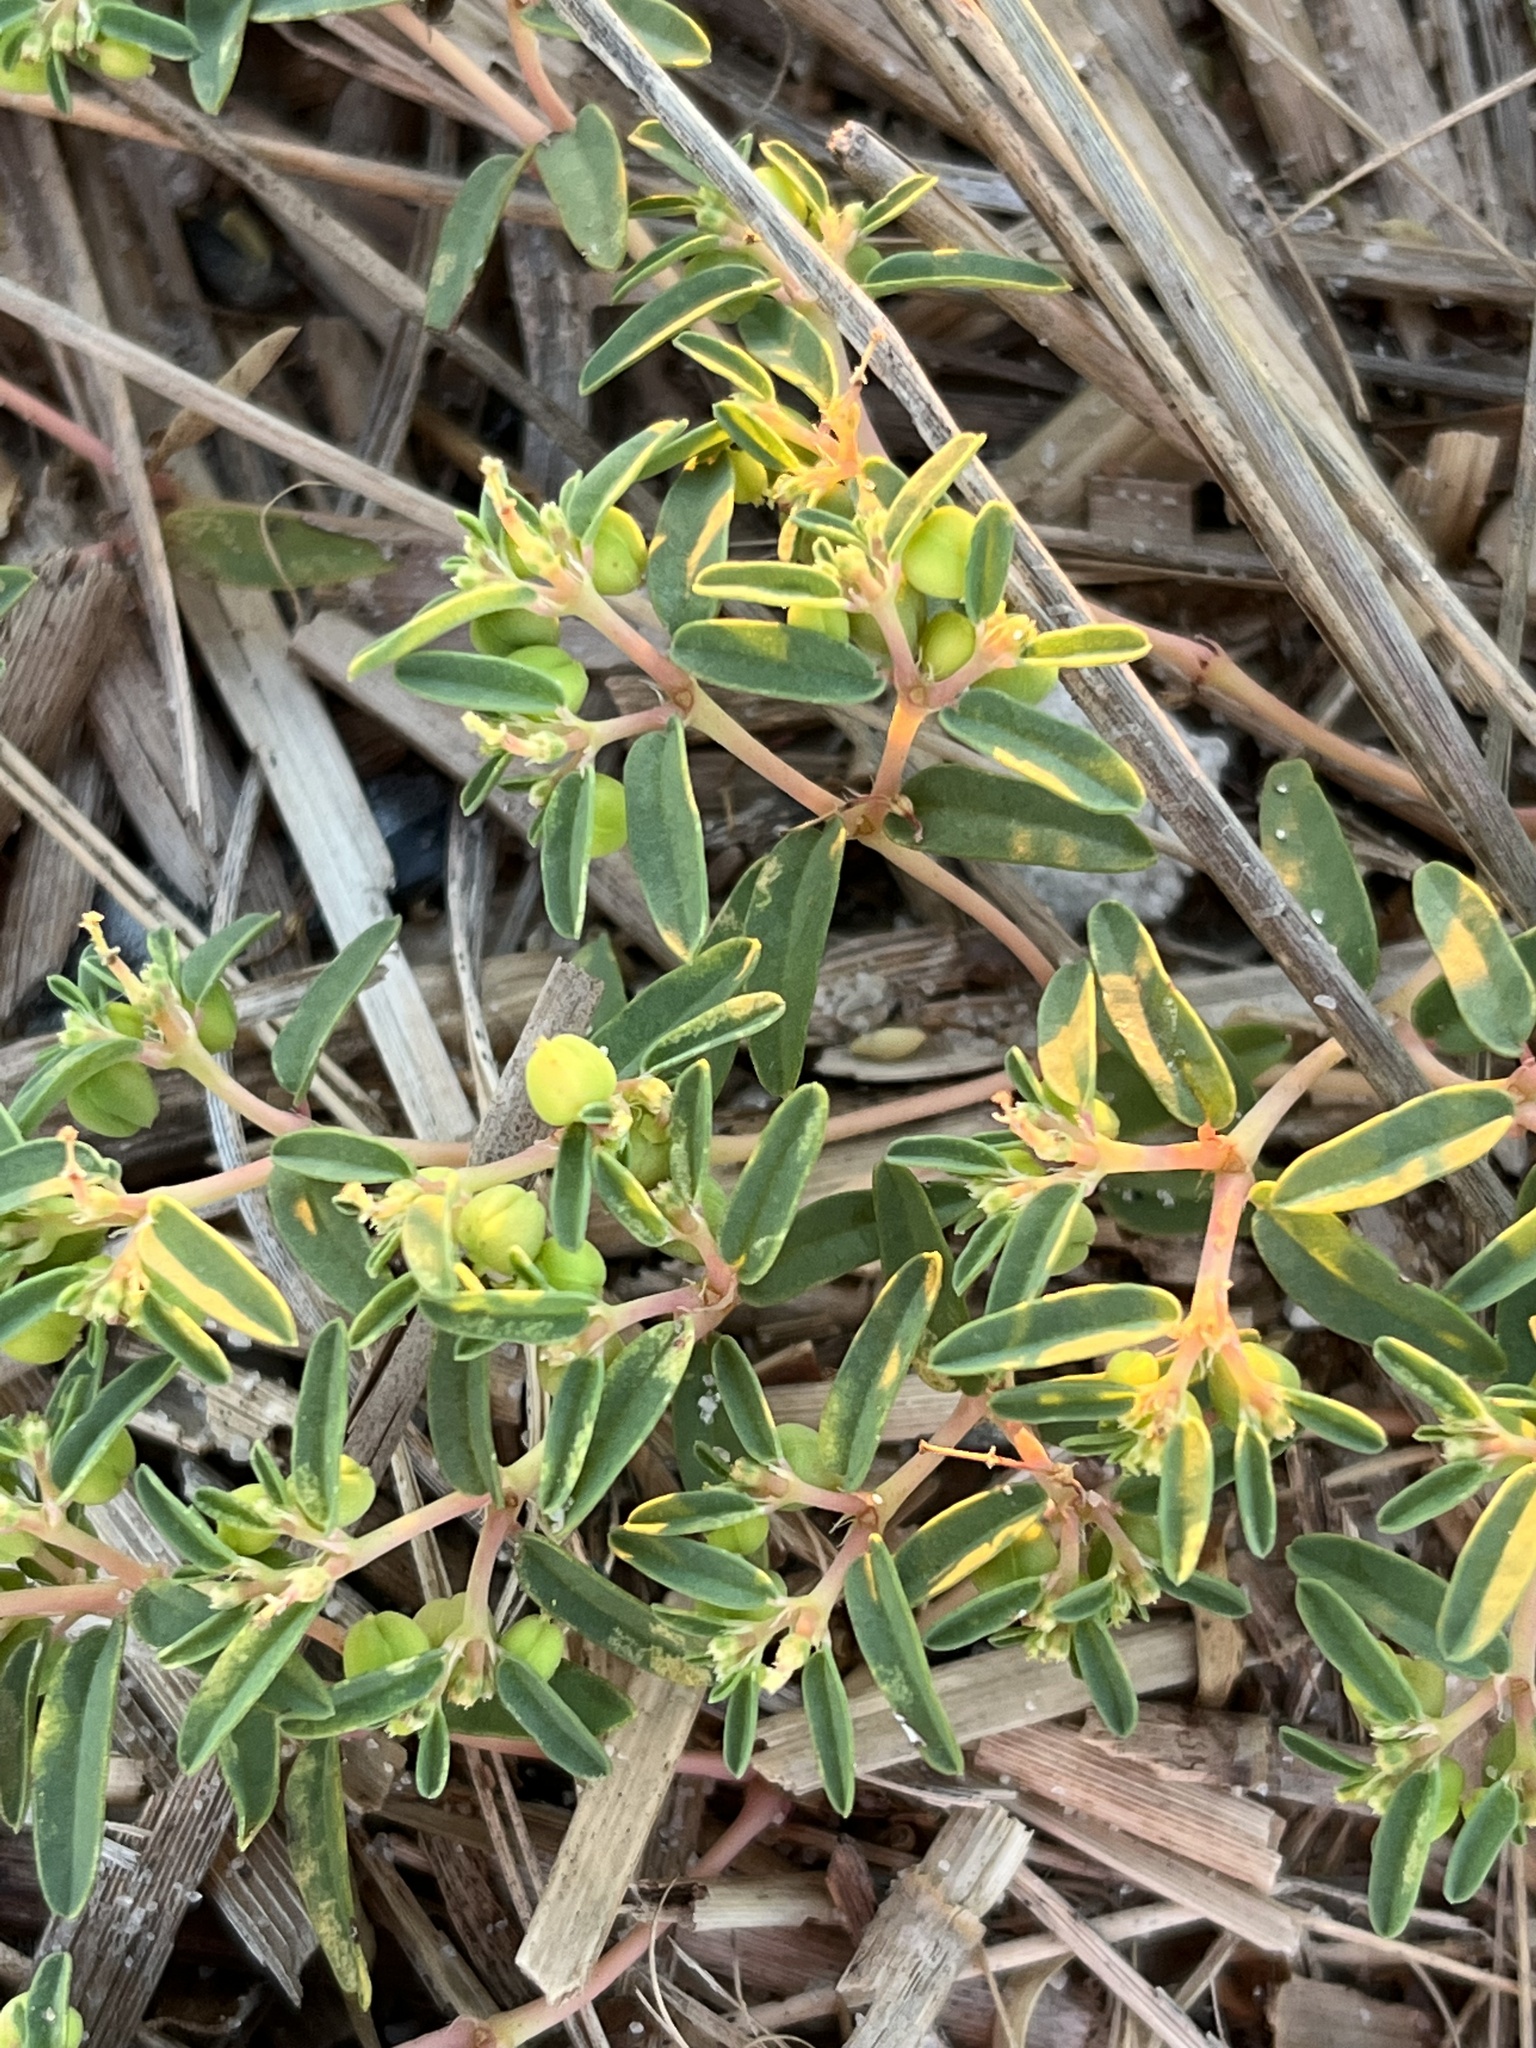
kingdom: Plantae
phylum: Tracheophyta
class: Magnoliopsida
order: Malpighiales
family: Euphorbiaceae
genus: Euphorbia
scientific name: Euphorbia polygonifolia
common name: Knotweed spurge
